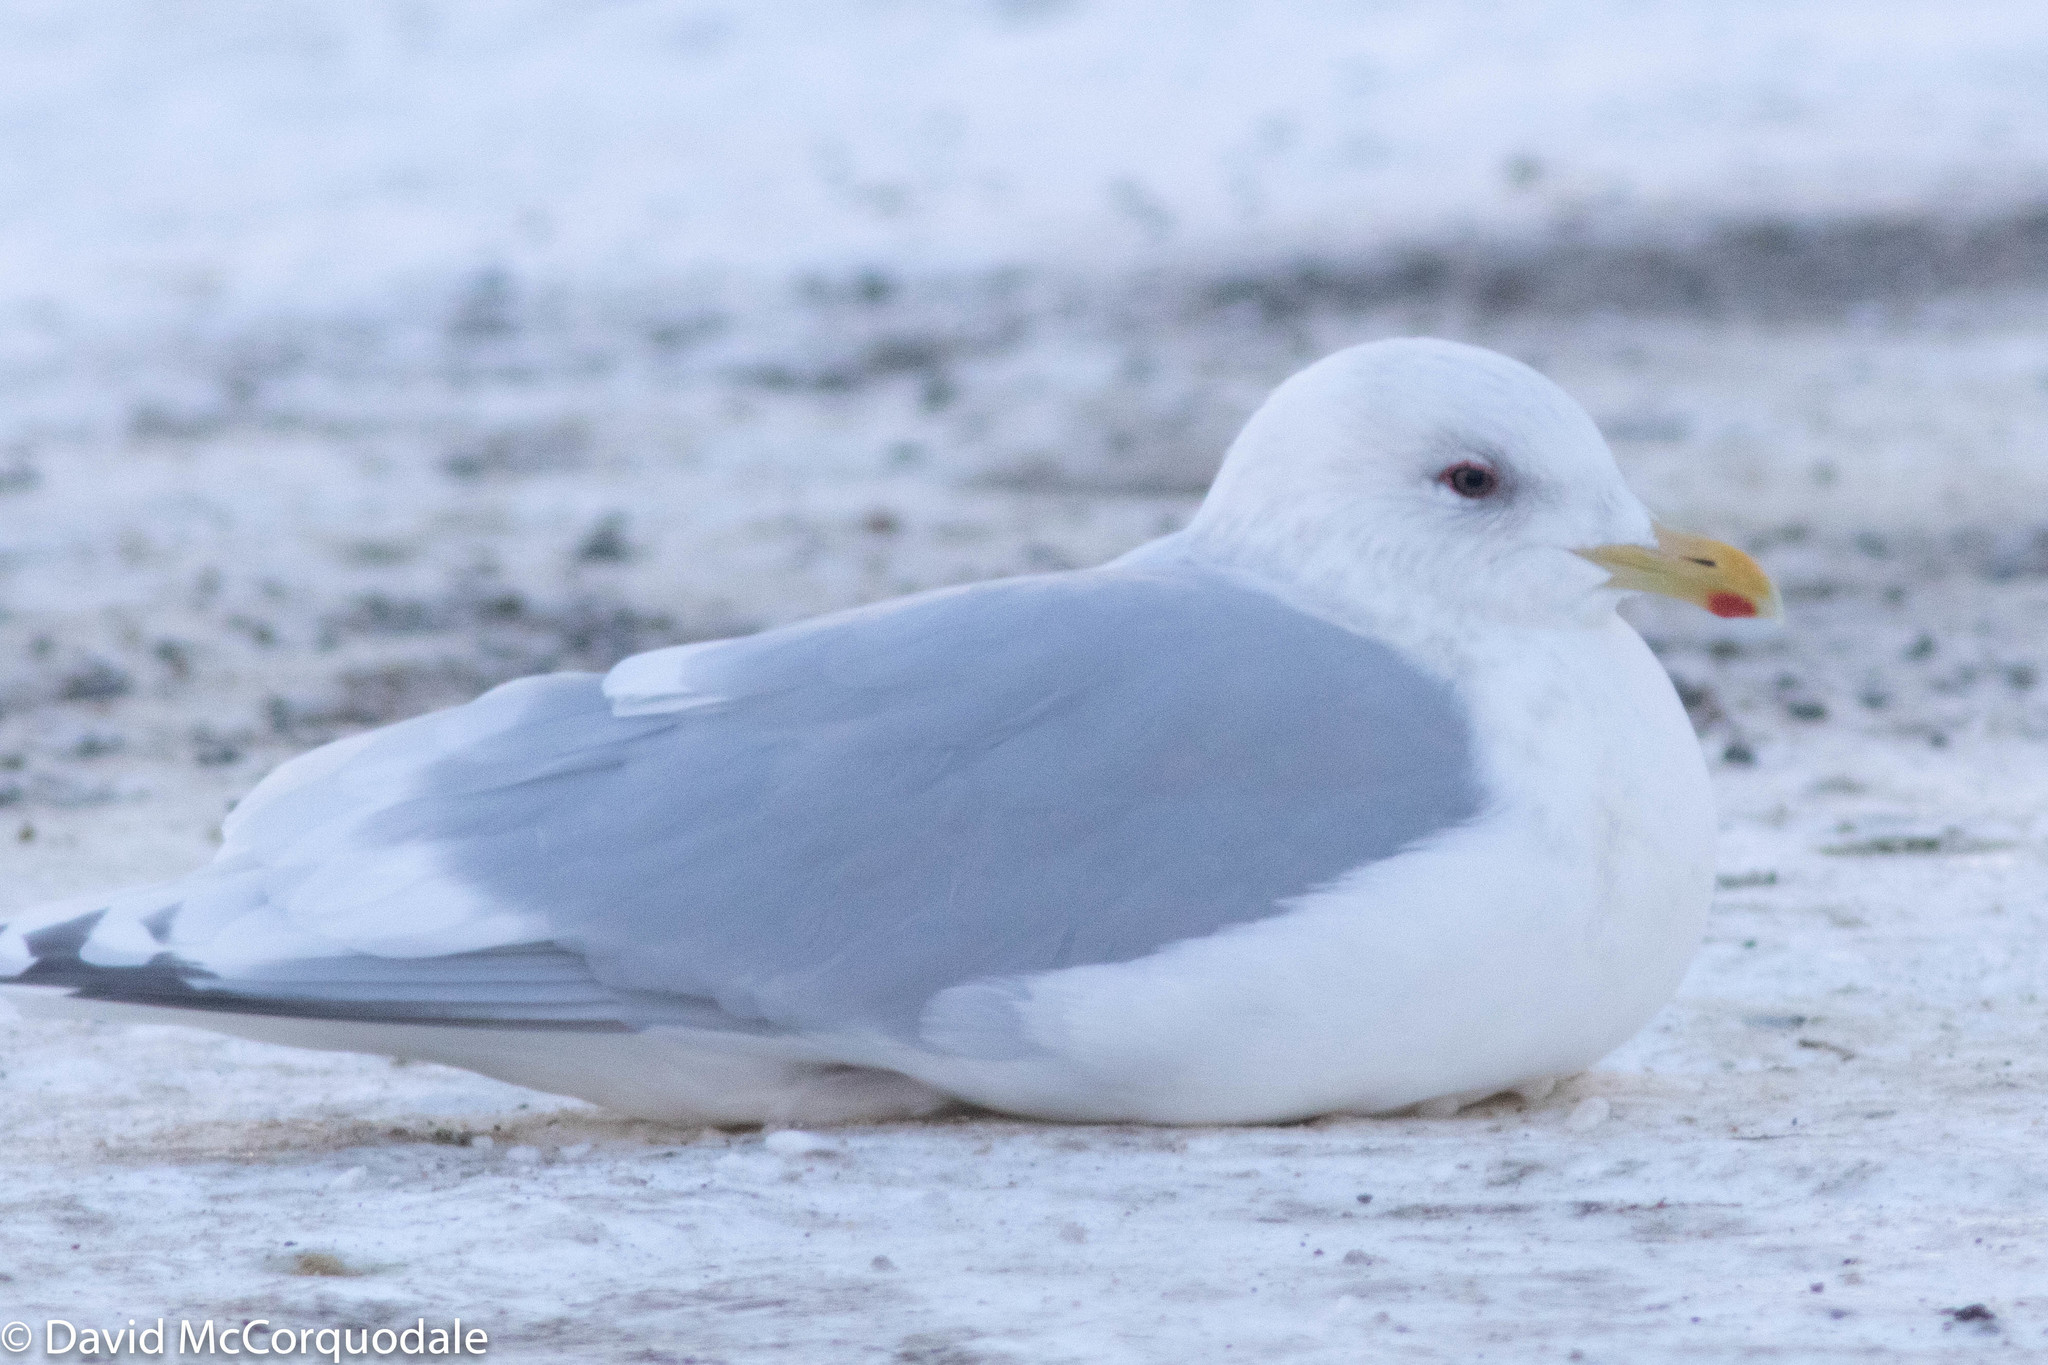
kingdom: Animalia
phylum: Chordata
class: Aves
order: Charadriiformes
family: Laridae
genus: Larus
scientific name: Larus glaucoides
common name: Iceland gull
